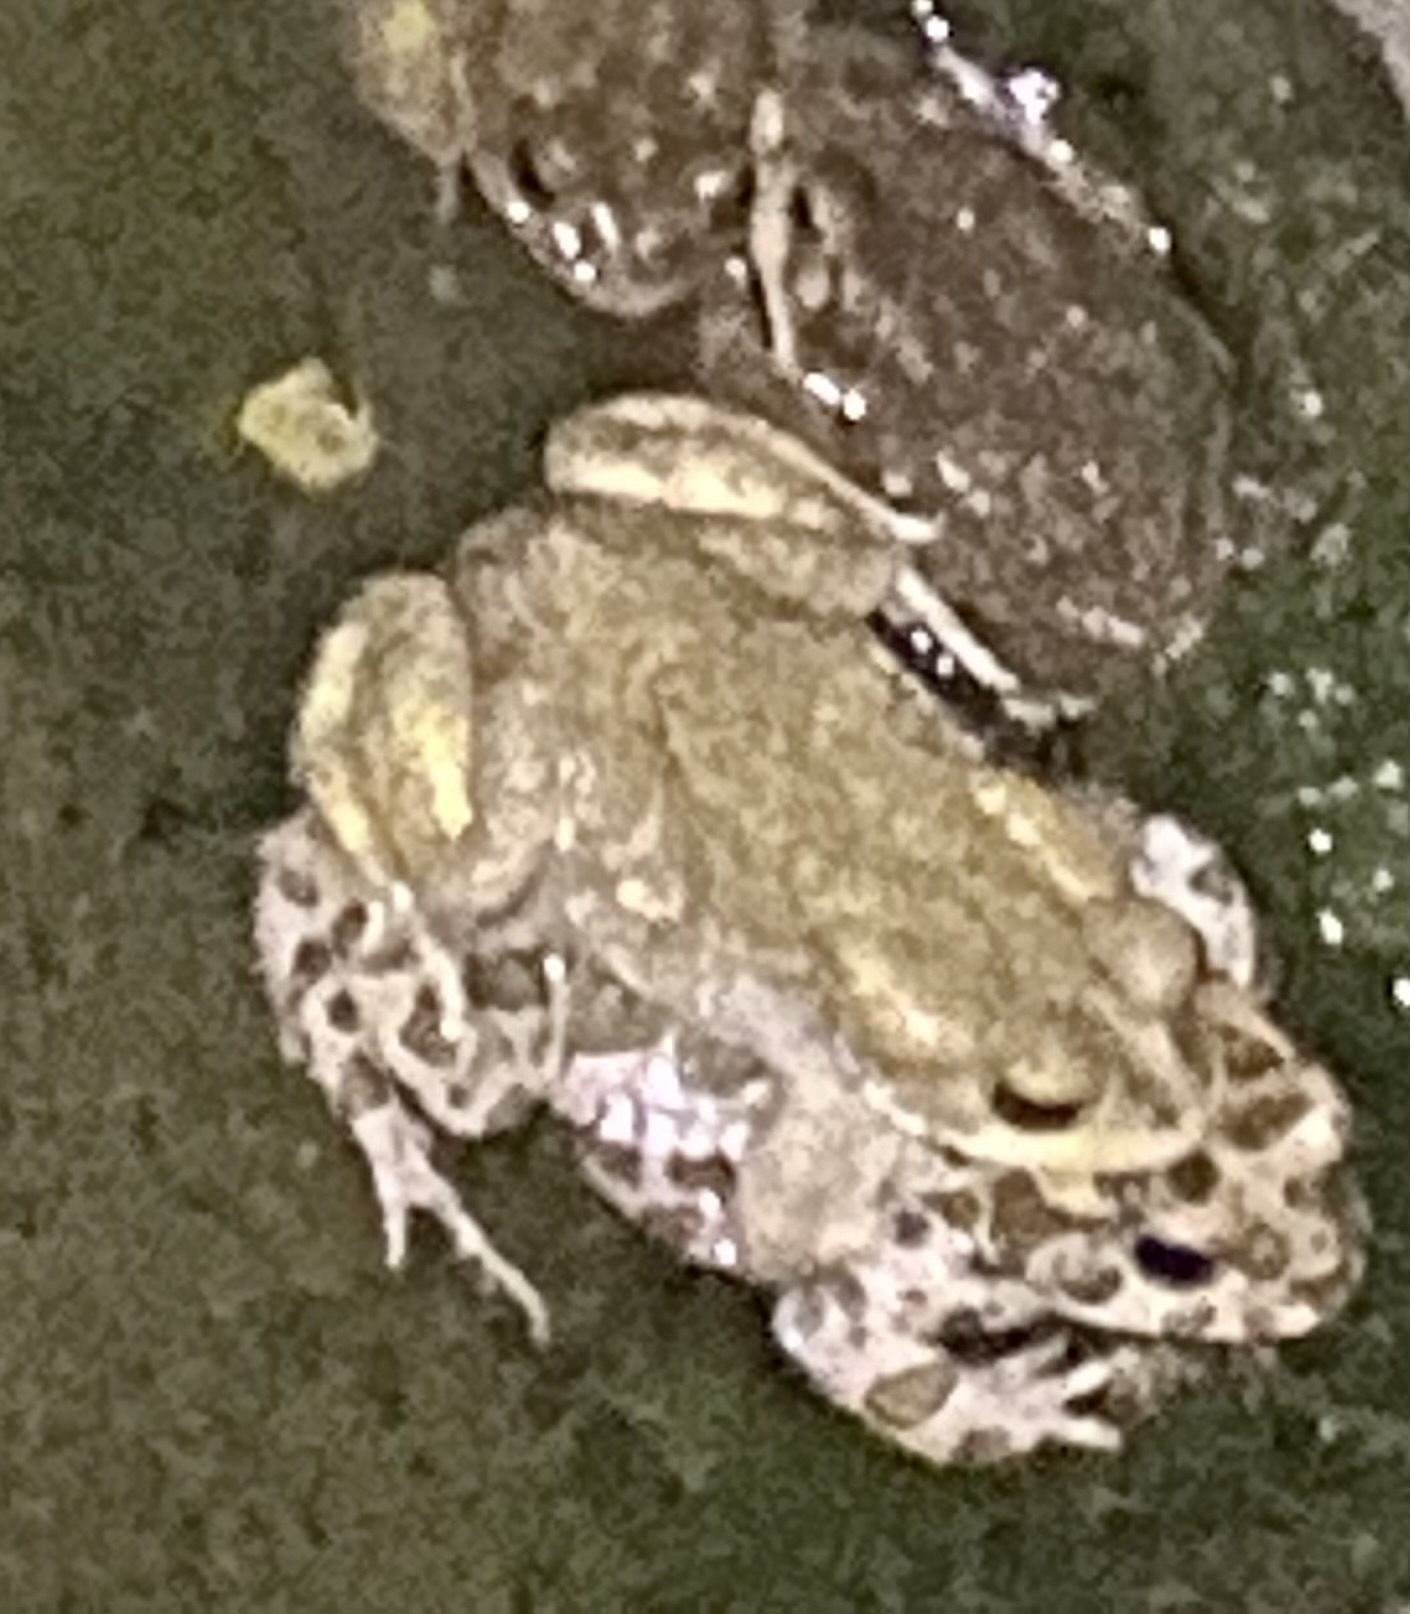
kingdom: Animalia
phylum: Chordata
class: Amphibia
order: Anura
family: Bufonidae
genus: Bufotes
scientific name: Bufotes viridis
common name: European green toad
